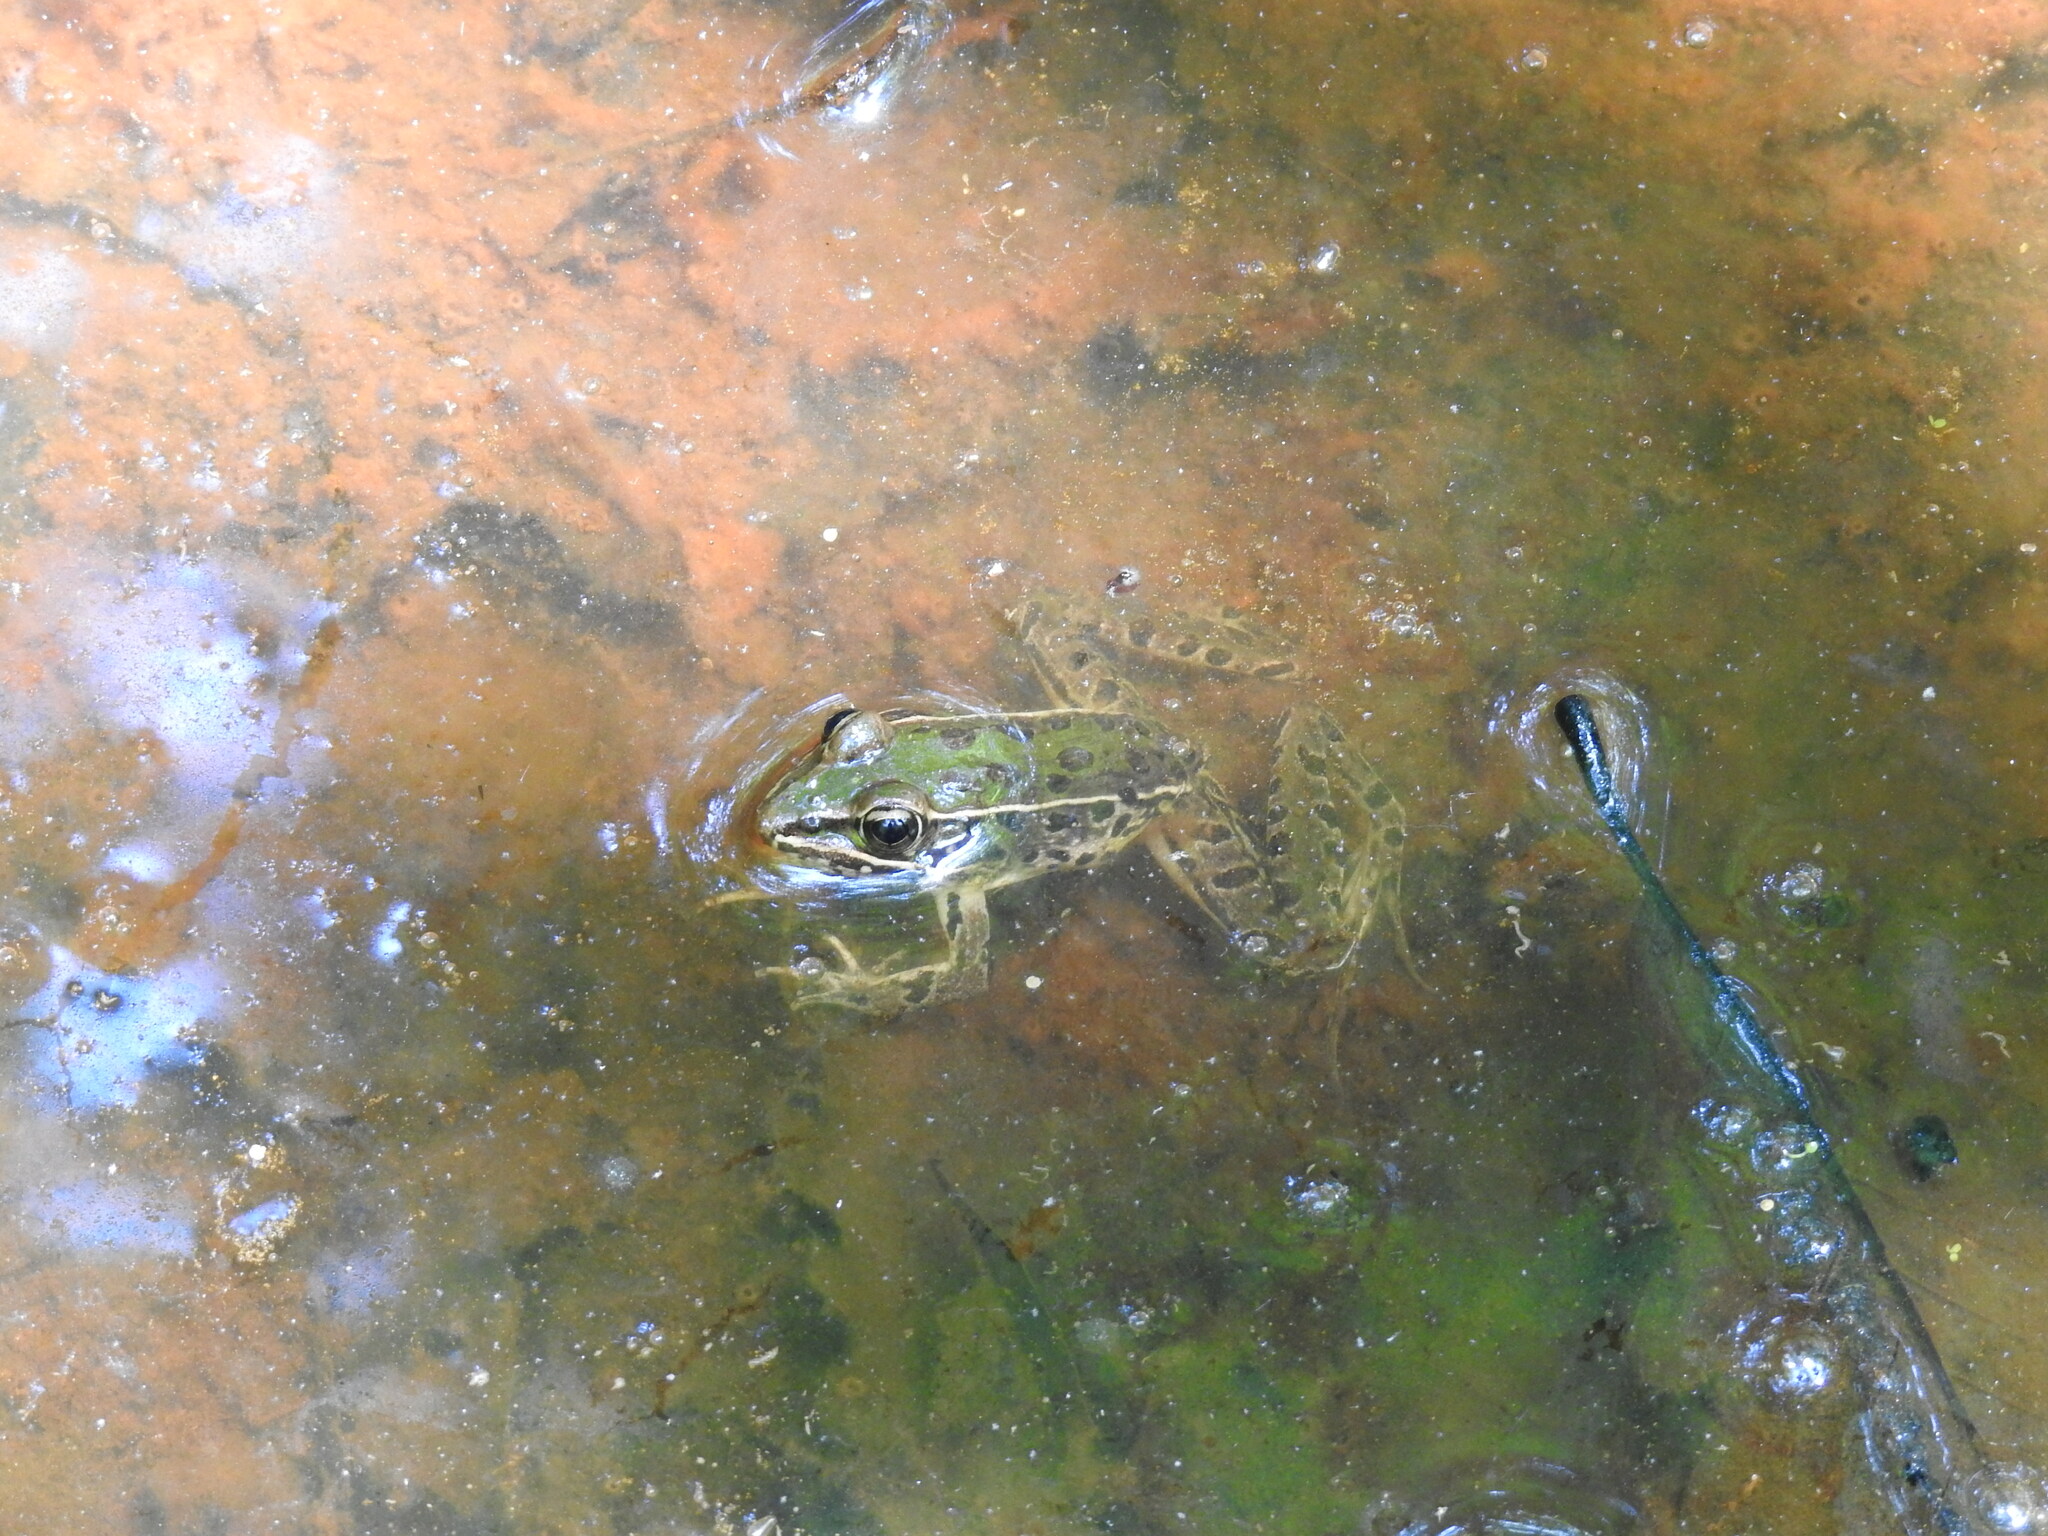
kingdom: Animalia
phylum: Chordata
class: Amphibia
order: Anura
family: Ranidae
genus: Lithobates
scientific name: Lithobates sphenocephalus
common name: Southern leopard frog
